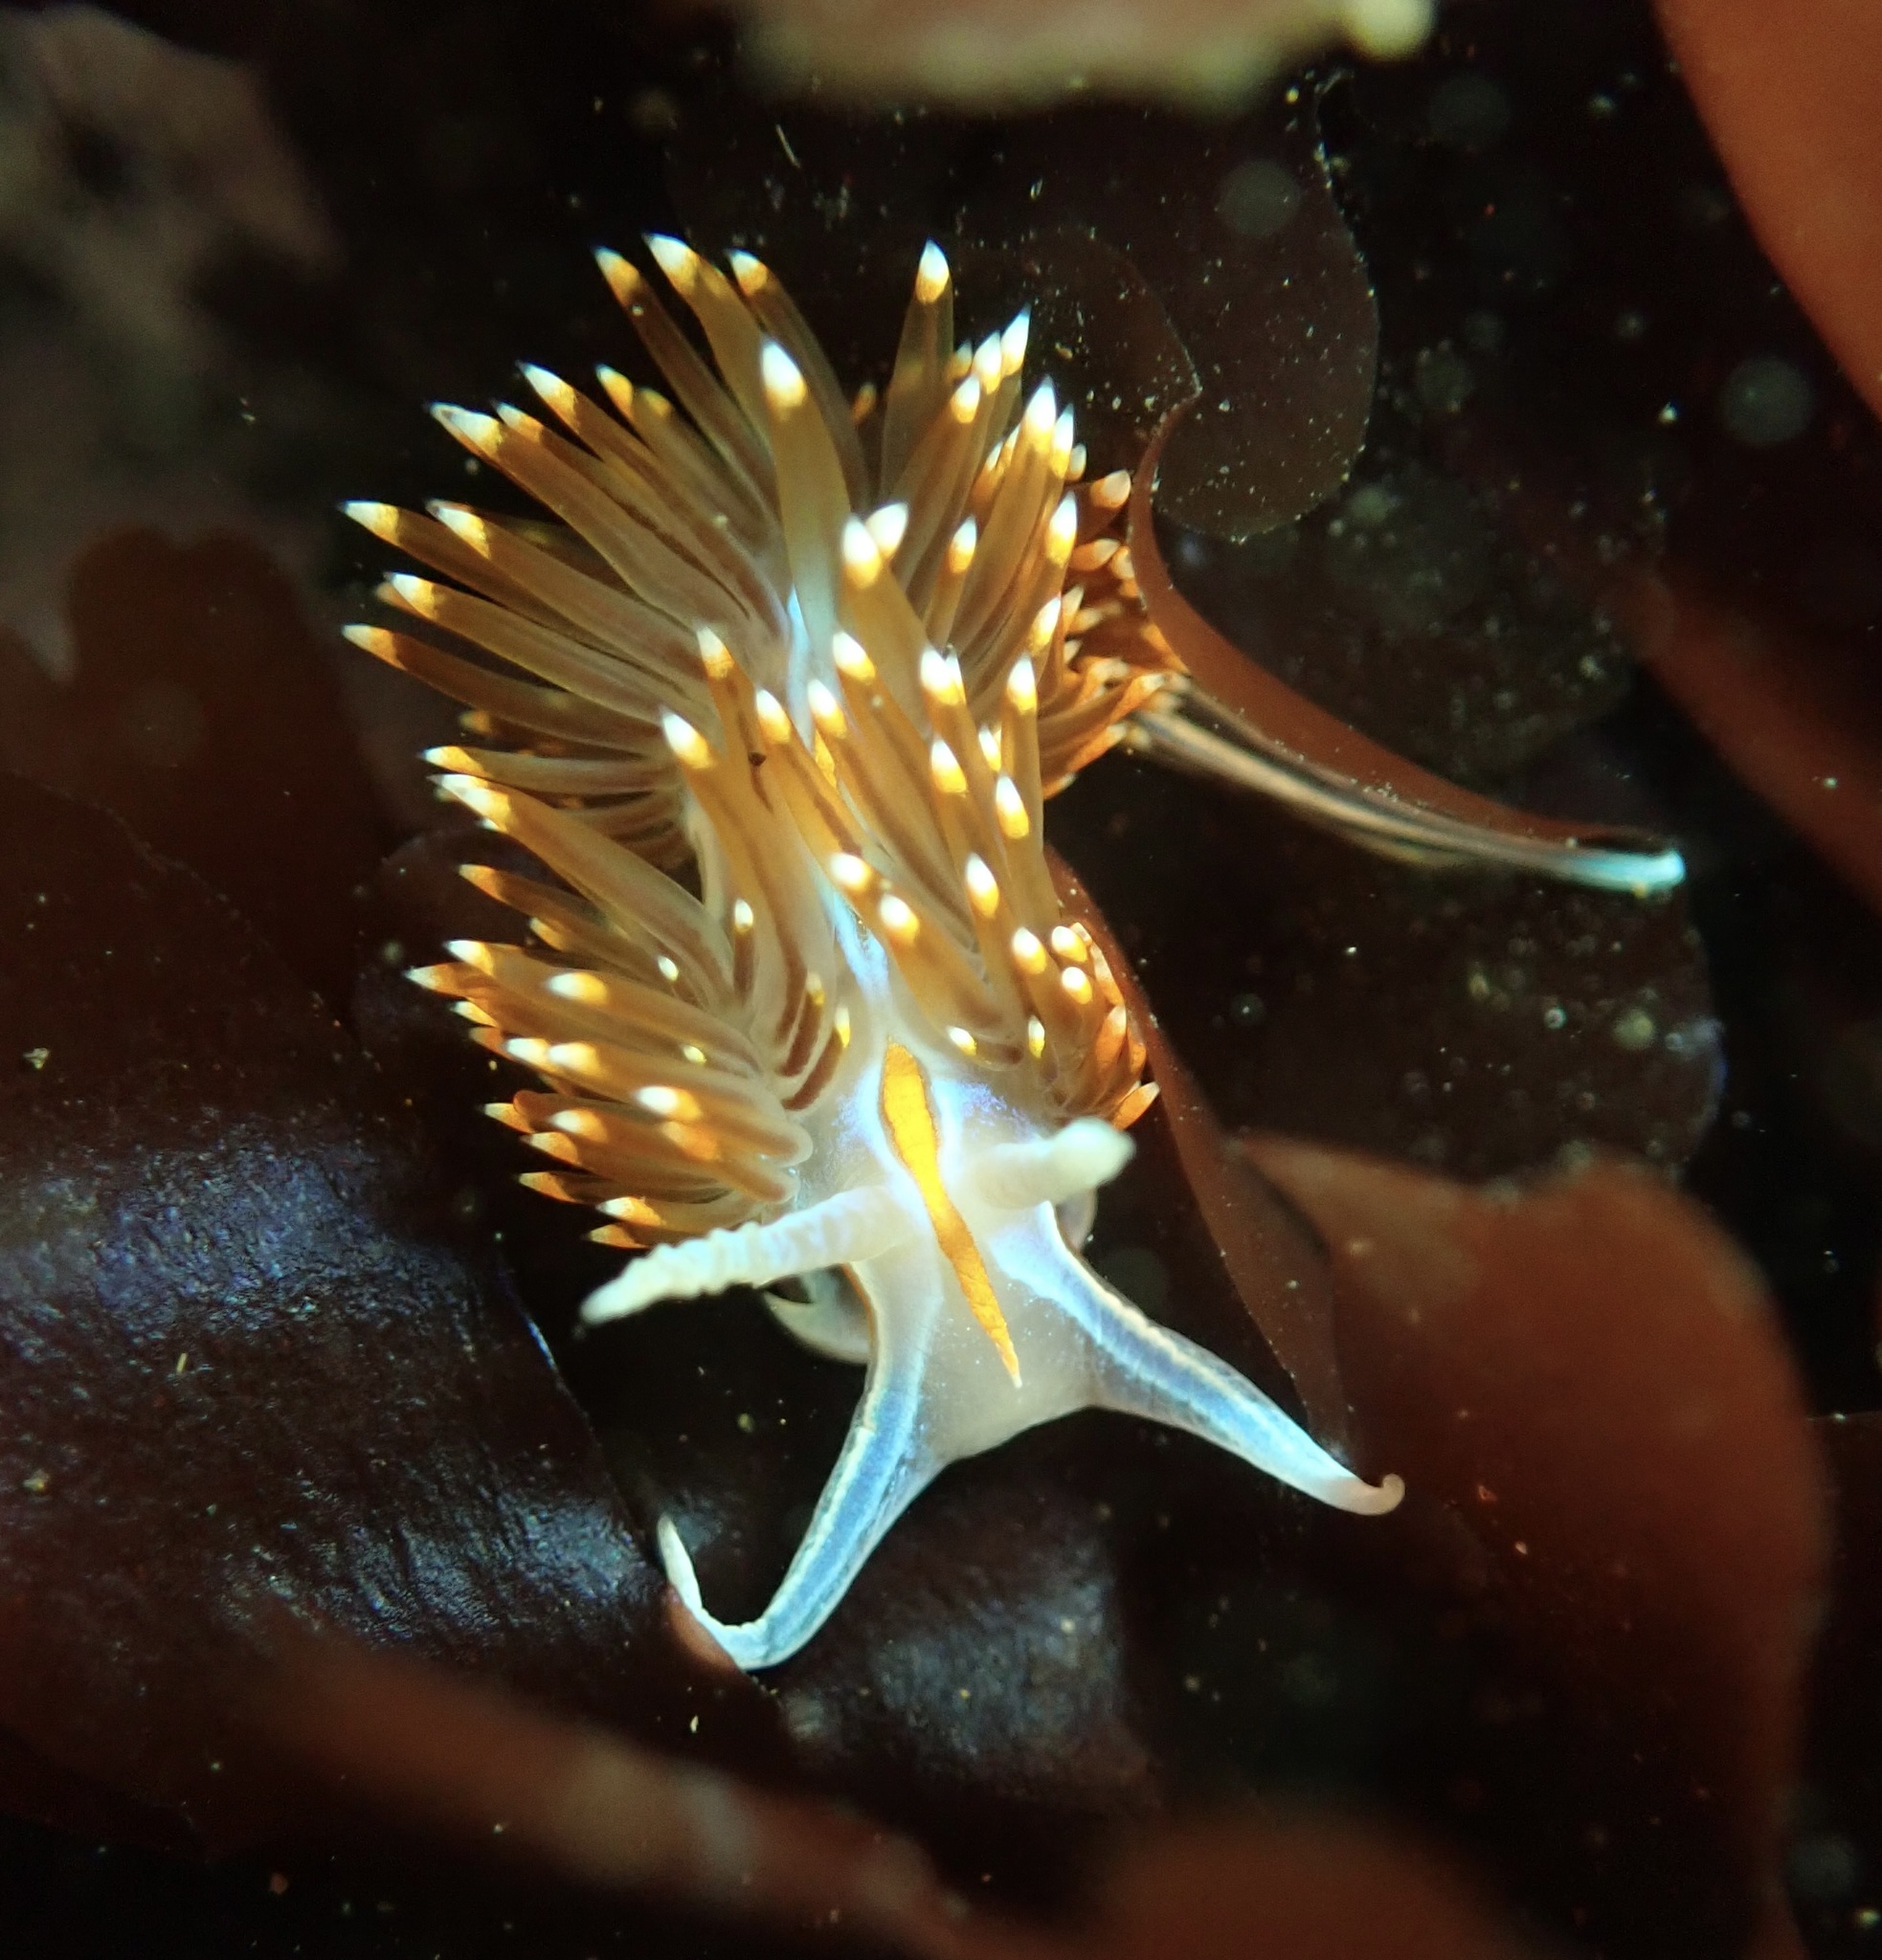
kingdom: Animalia
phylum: Mollusca
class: Gastropoda
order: Nudibranchia
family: Myrrhinidae
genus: Hermissenda
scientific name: Hermissenda opalescens
